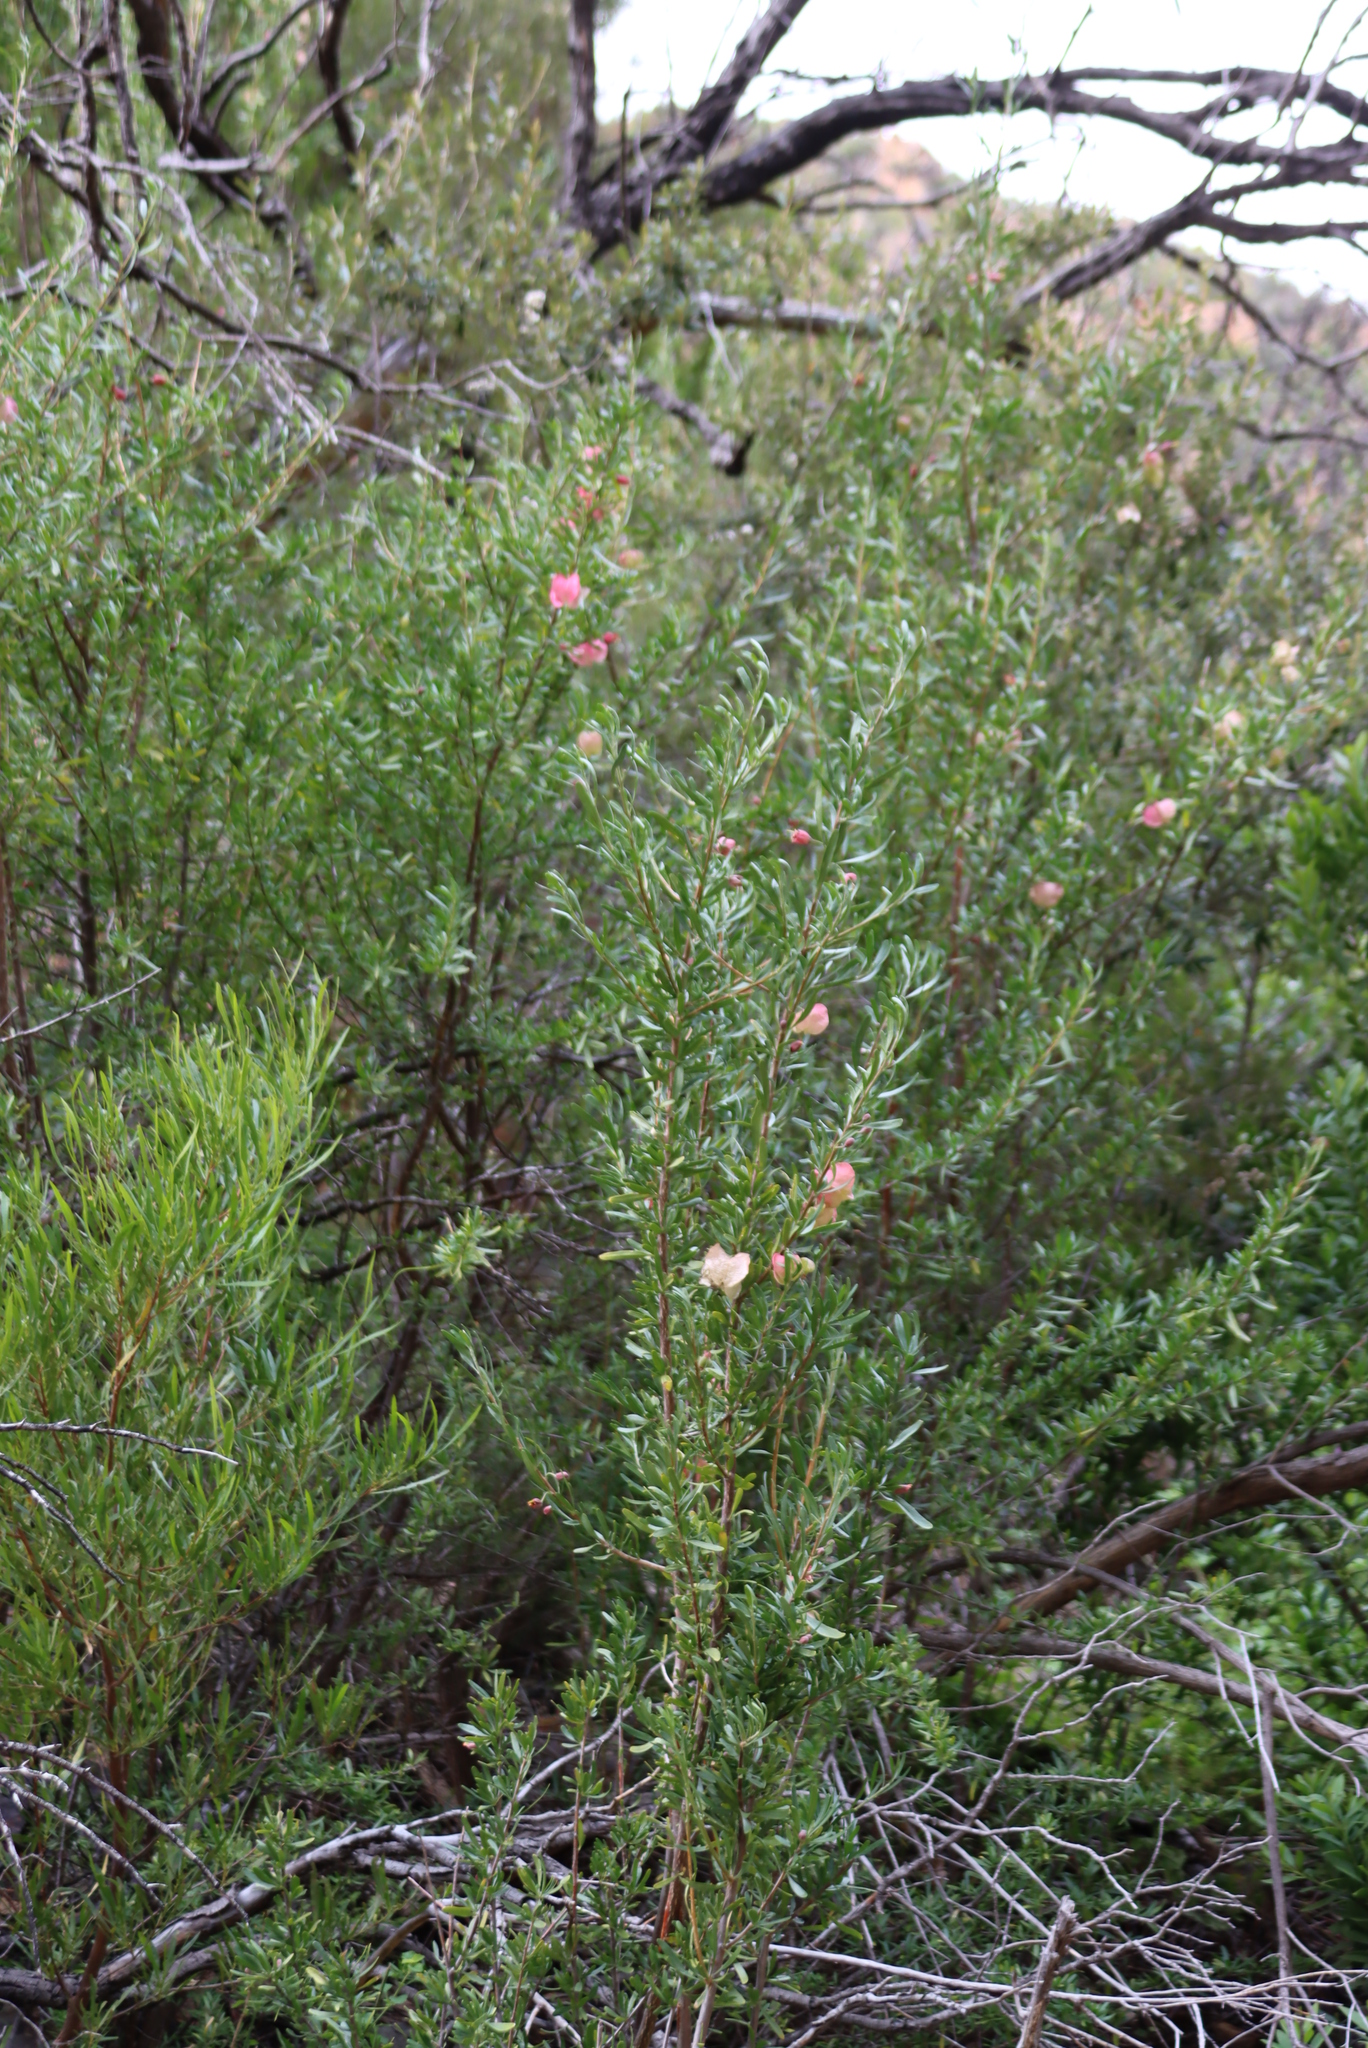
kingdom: Plantae
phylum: Tracheophyta
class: Magnoliopsida
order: Sapindales
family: Meliaceae
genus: Nymania
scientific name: Nymania capensis
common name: Chinese lantern tree
